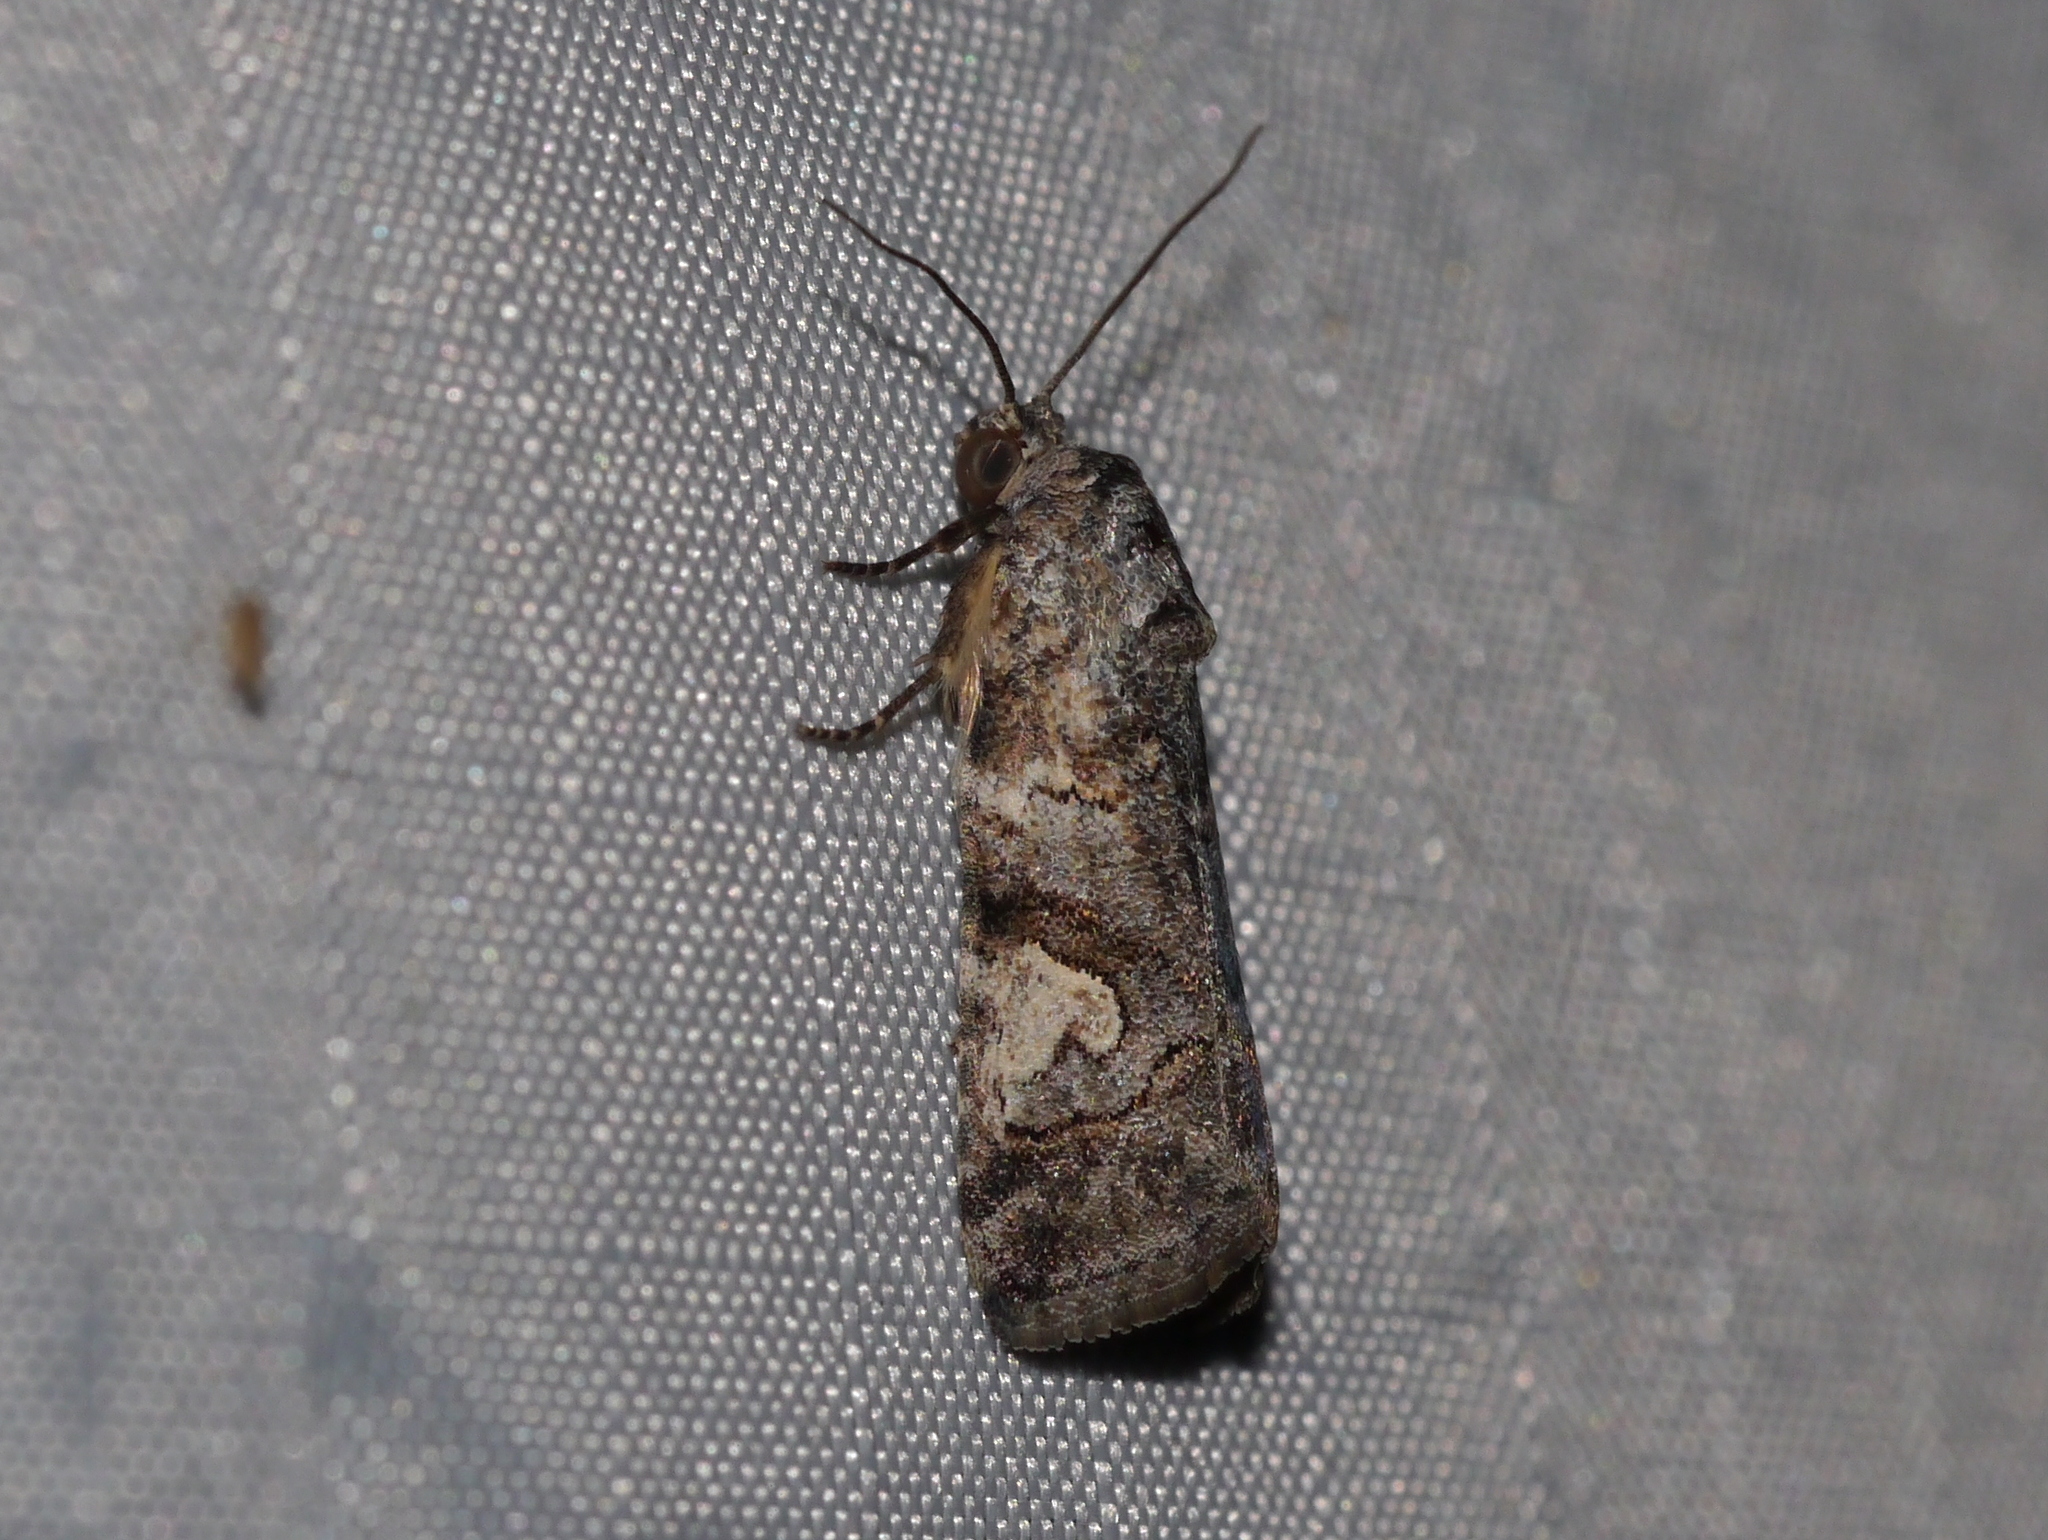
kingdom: Animalia
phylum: Arthropoda
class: Insecta
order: Lepidoptera
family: Noctuidae
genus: Metaponpneumata
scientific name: Metaponpneumata rogenhoferi
